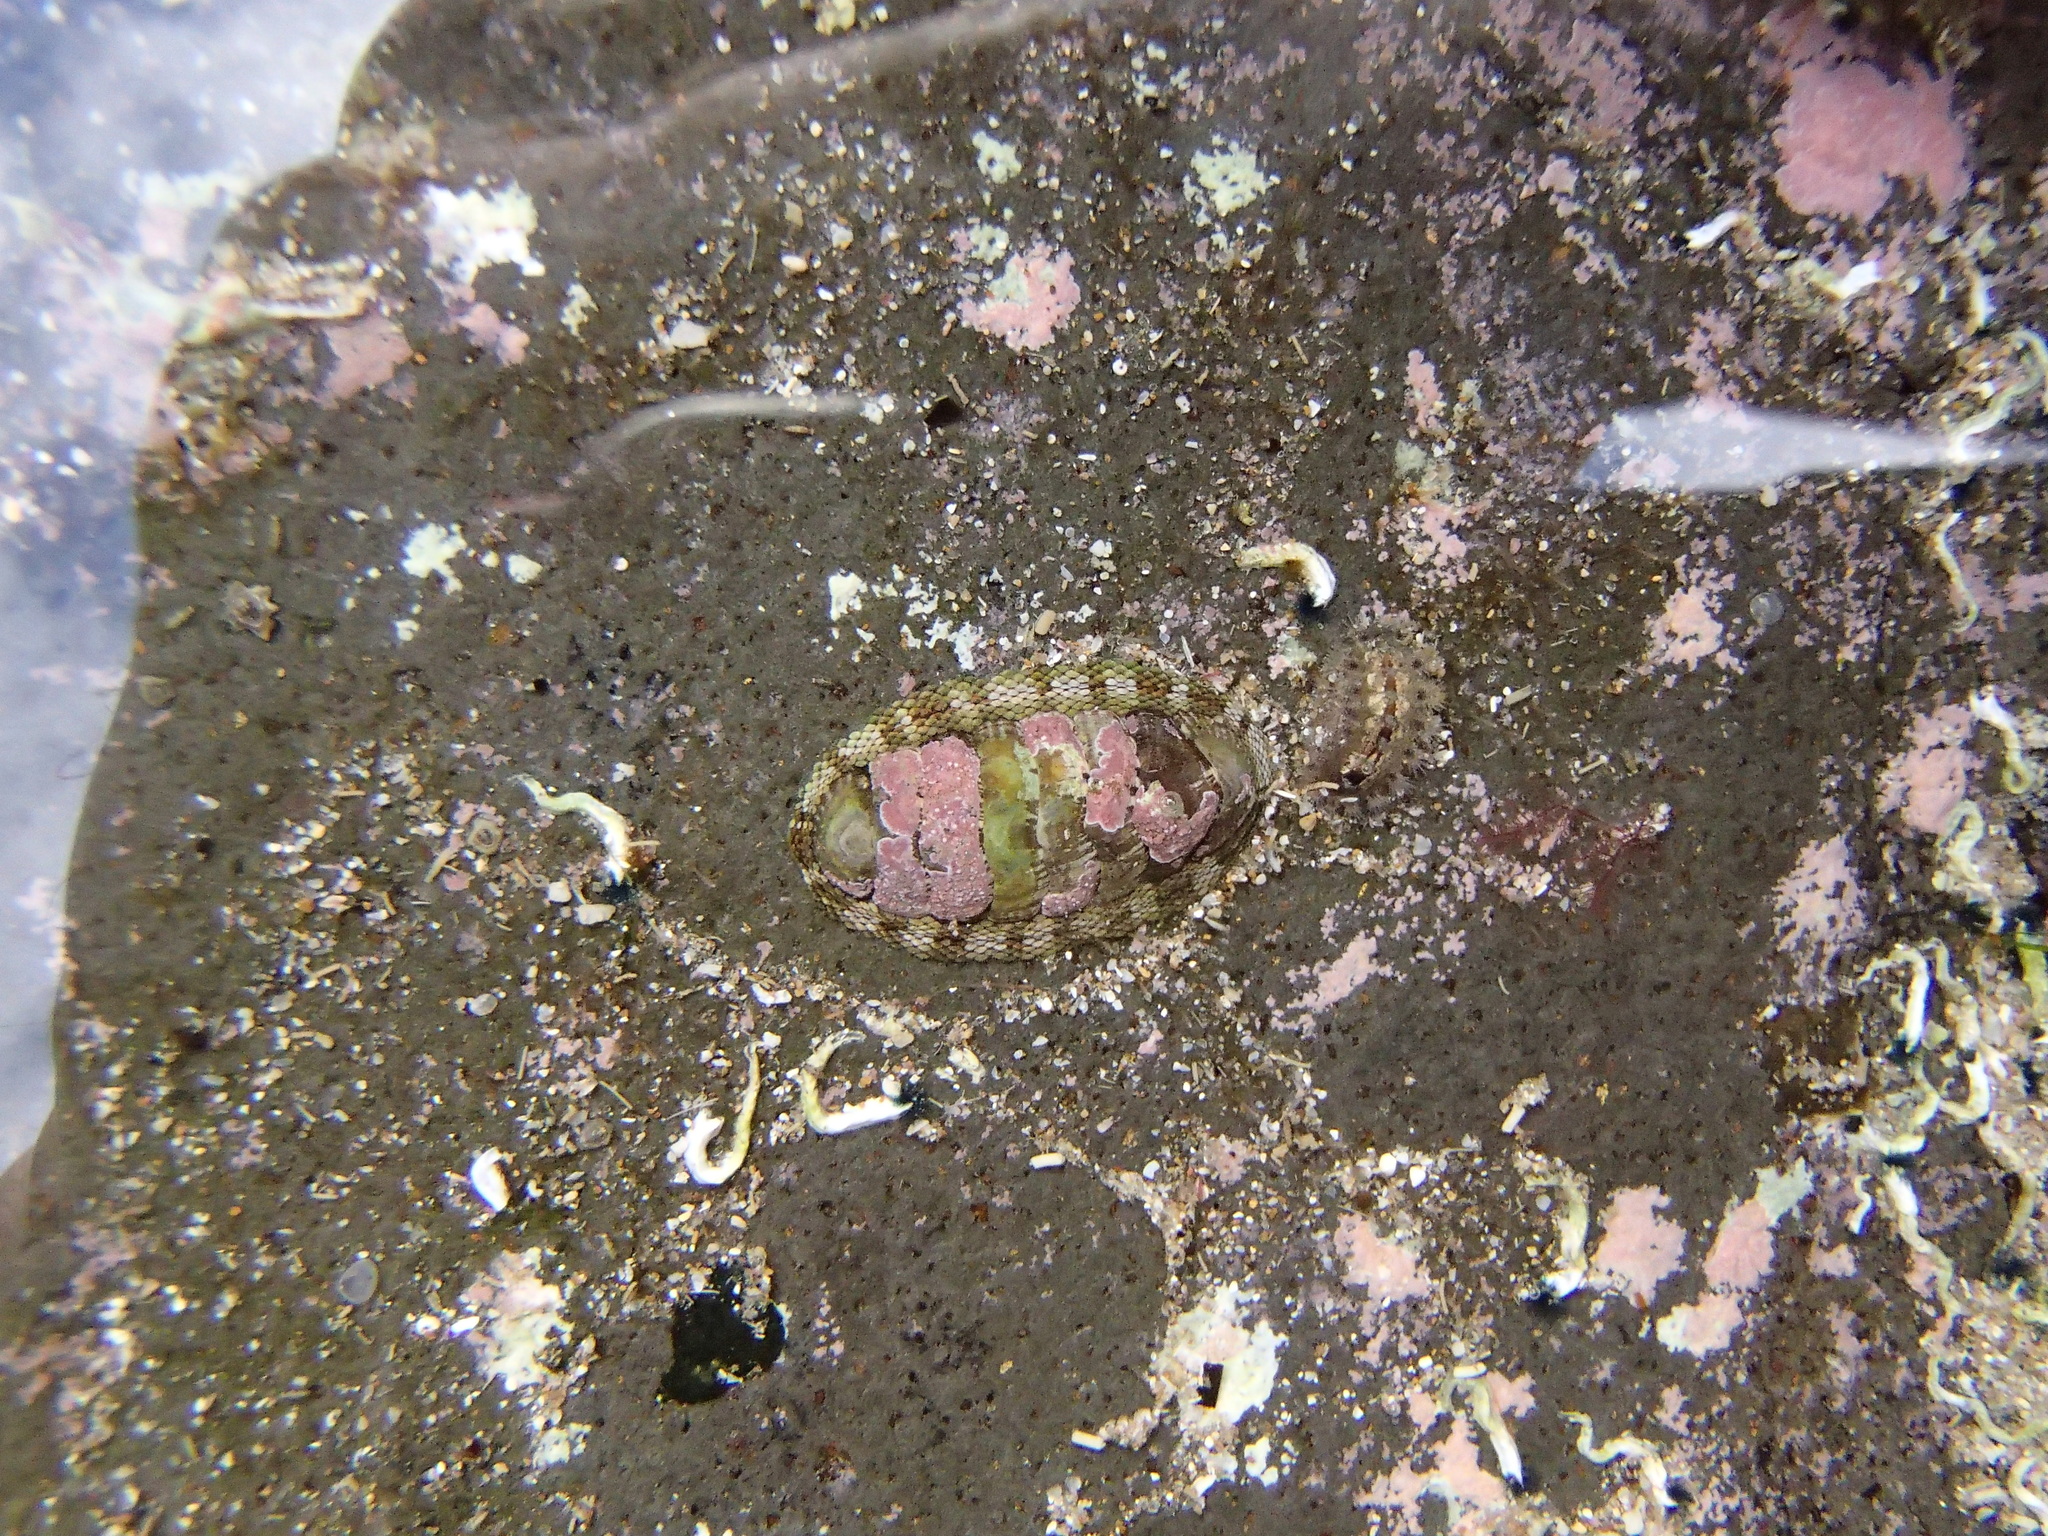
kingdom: Animalia
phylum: Mollusca
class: Polyplacophora
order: Chitonida
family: Chitonidae
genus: Sypharochiton
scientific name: Sypharochiton pelliserpentis
